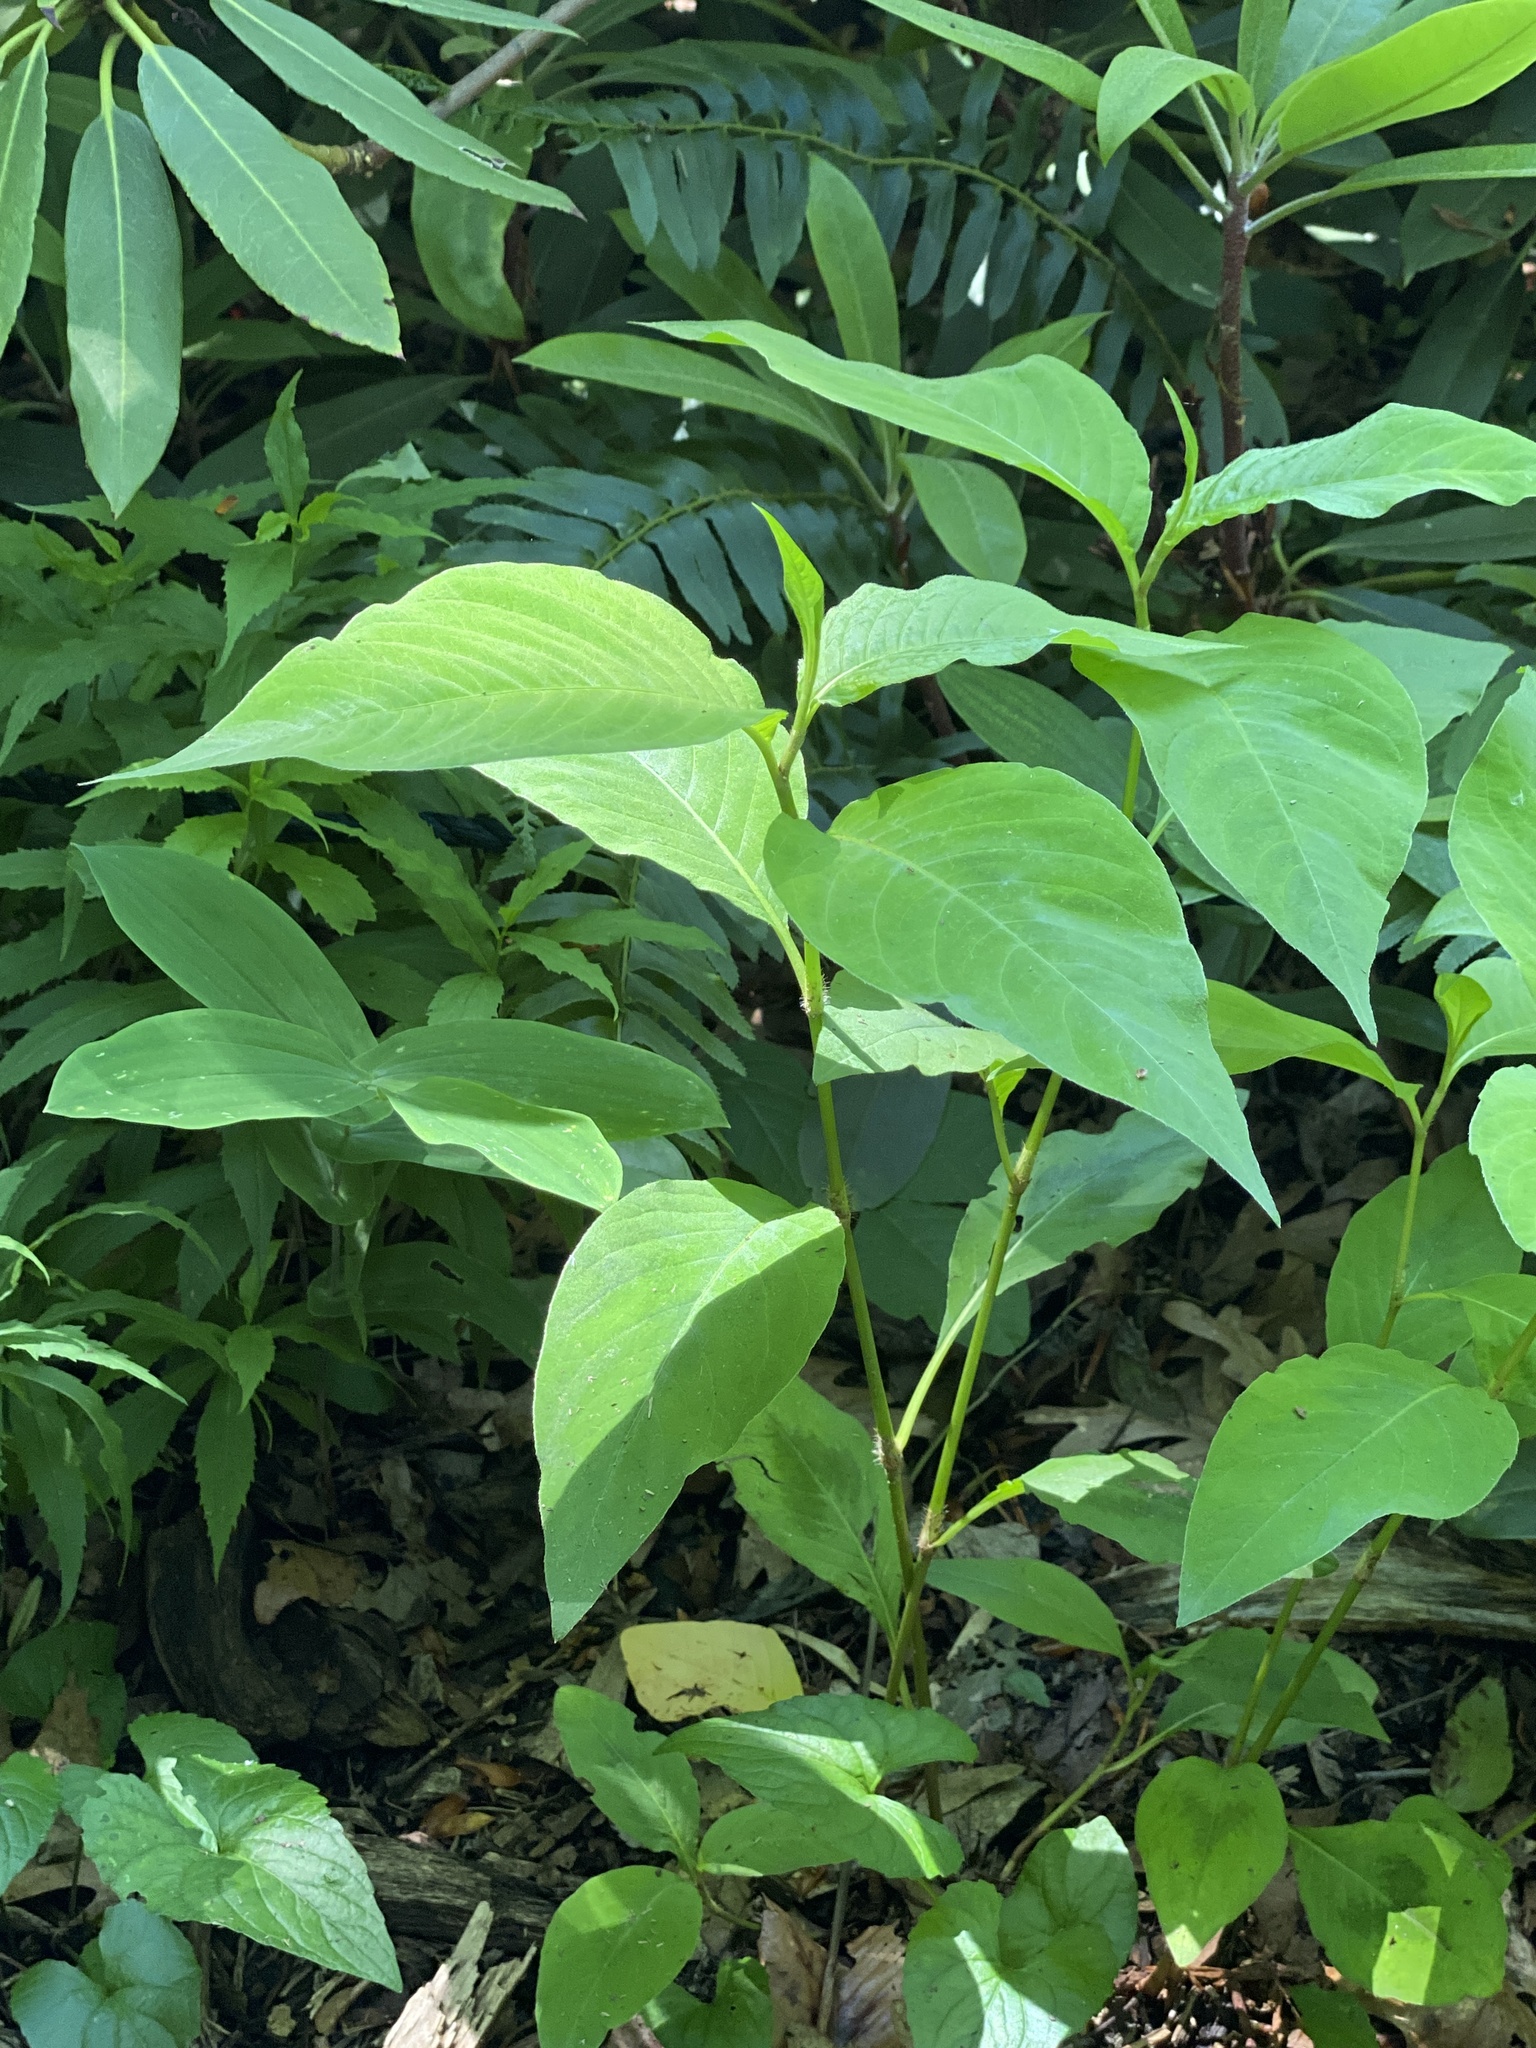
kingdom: Plantae
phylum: Tracheophyta
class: Magnoliopsida
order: Caryophyllales
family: Polygonaceae
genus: Persicaria
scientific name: Persicaria virginiana
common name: Jumpseed
